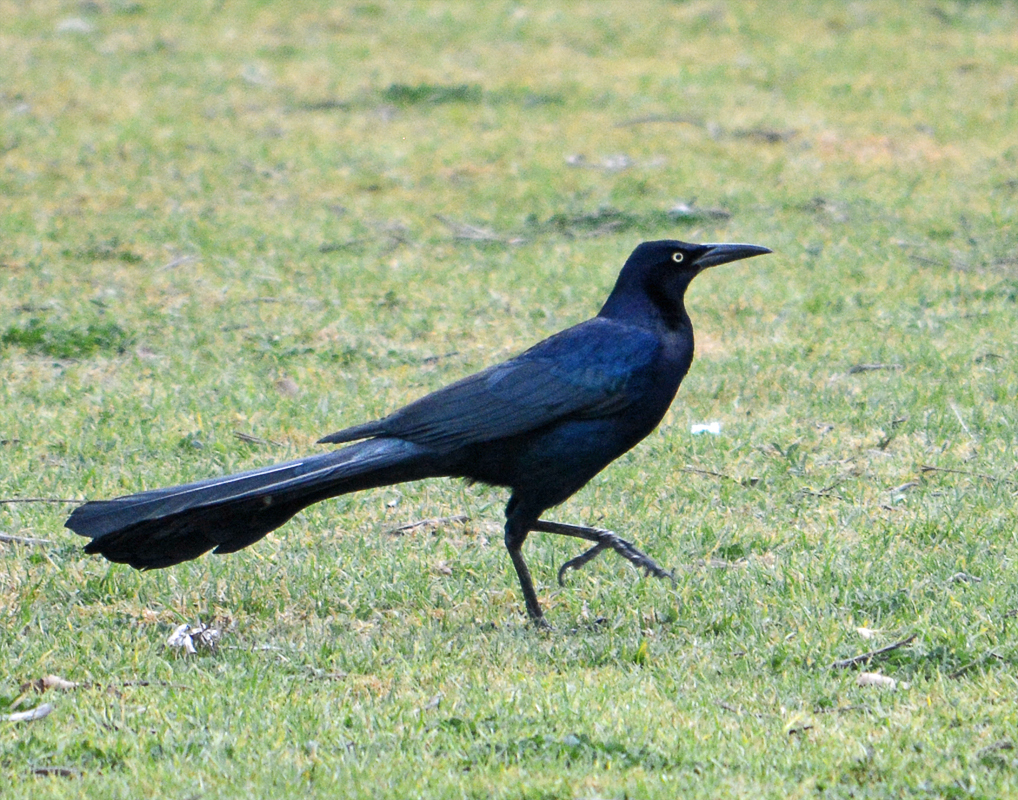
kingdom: Animalia
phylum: Chordata
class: Aves
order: Passeriformes
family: Icteridae
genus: Quiscalus
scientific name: Quiscalus mexicanus
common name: Great-tailed grackle
